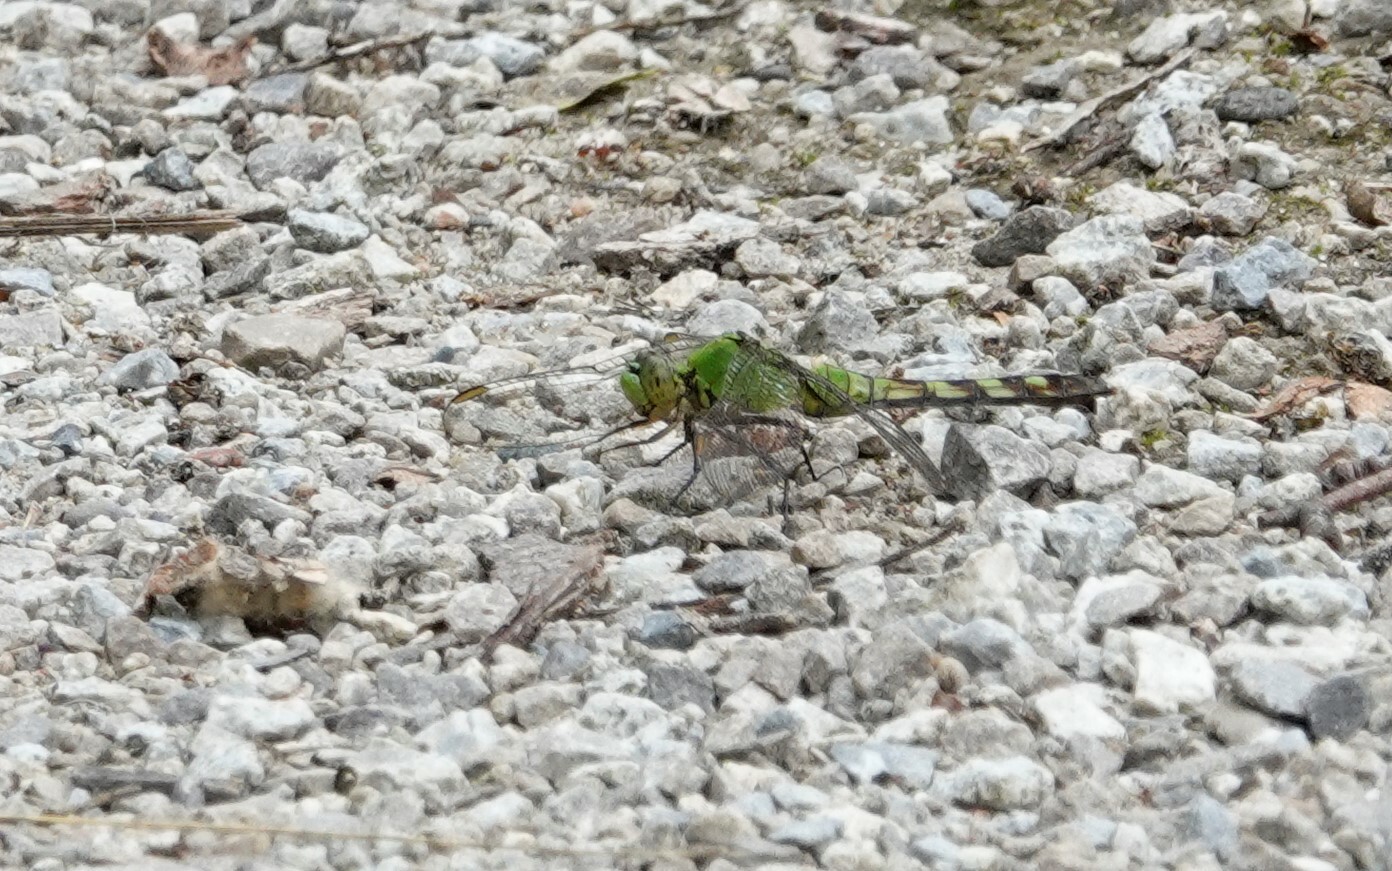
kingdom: Animalia
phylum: Arthropoda
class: Insecta
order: Odonata
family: Libellulidae
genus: Erythemis
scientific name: Erythemis simplicicollis
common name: Eastern pondhawk
